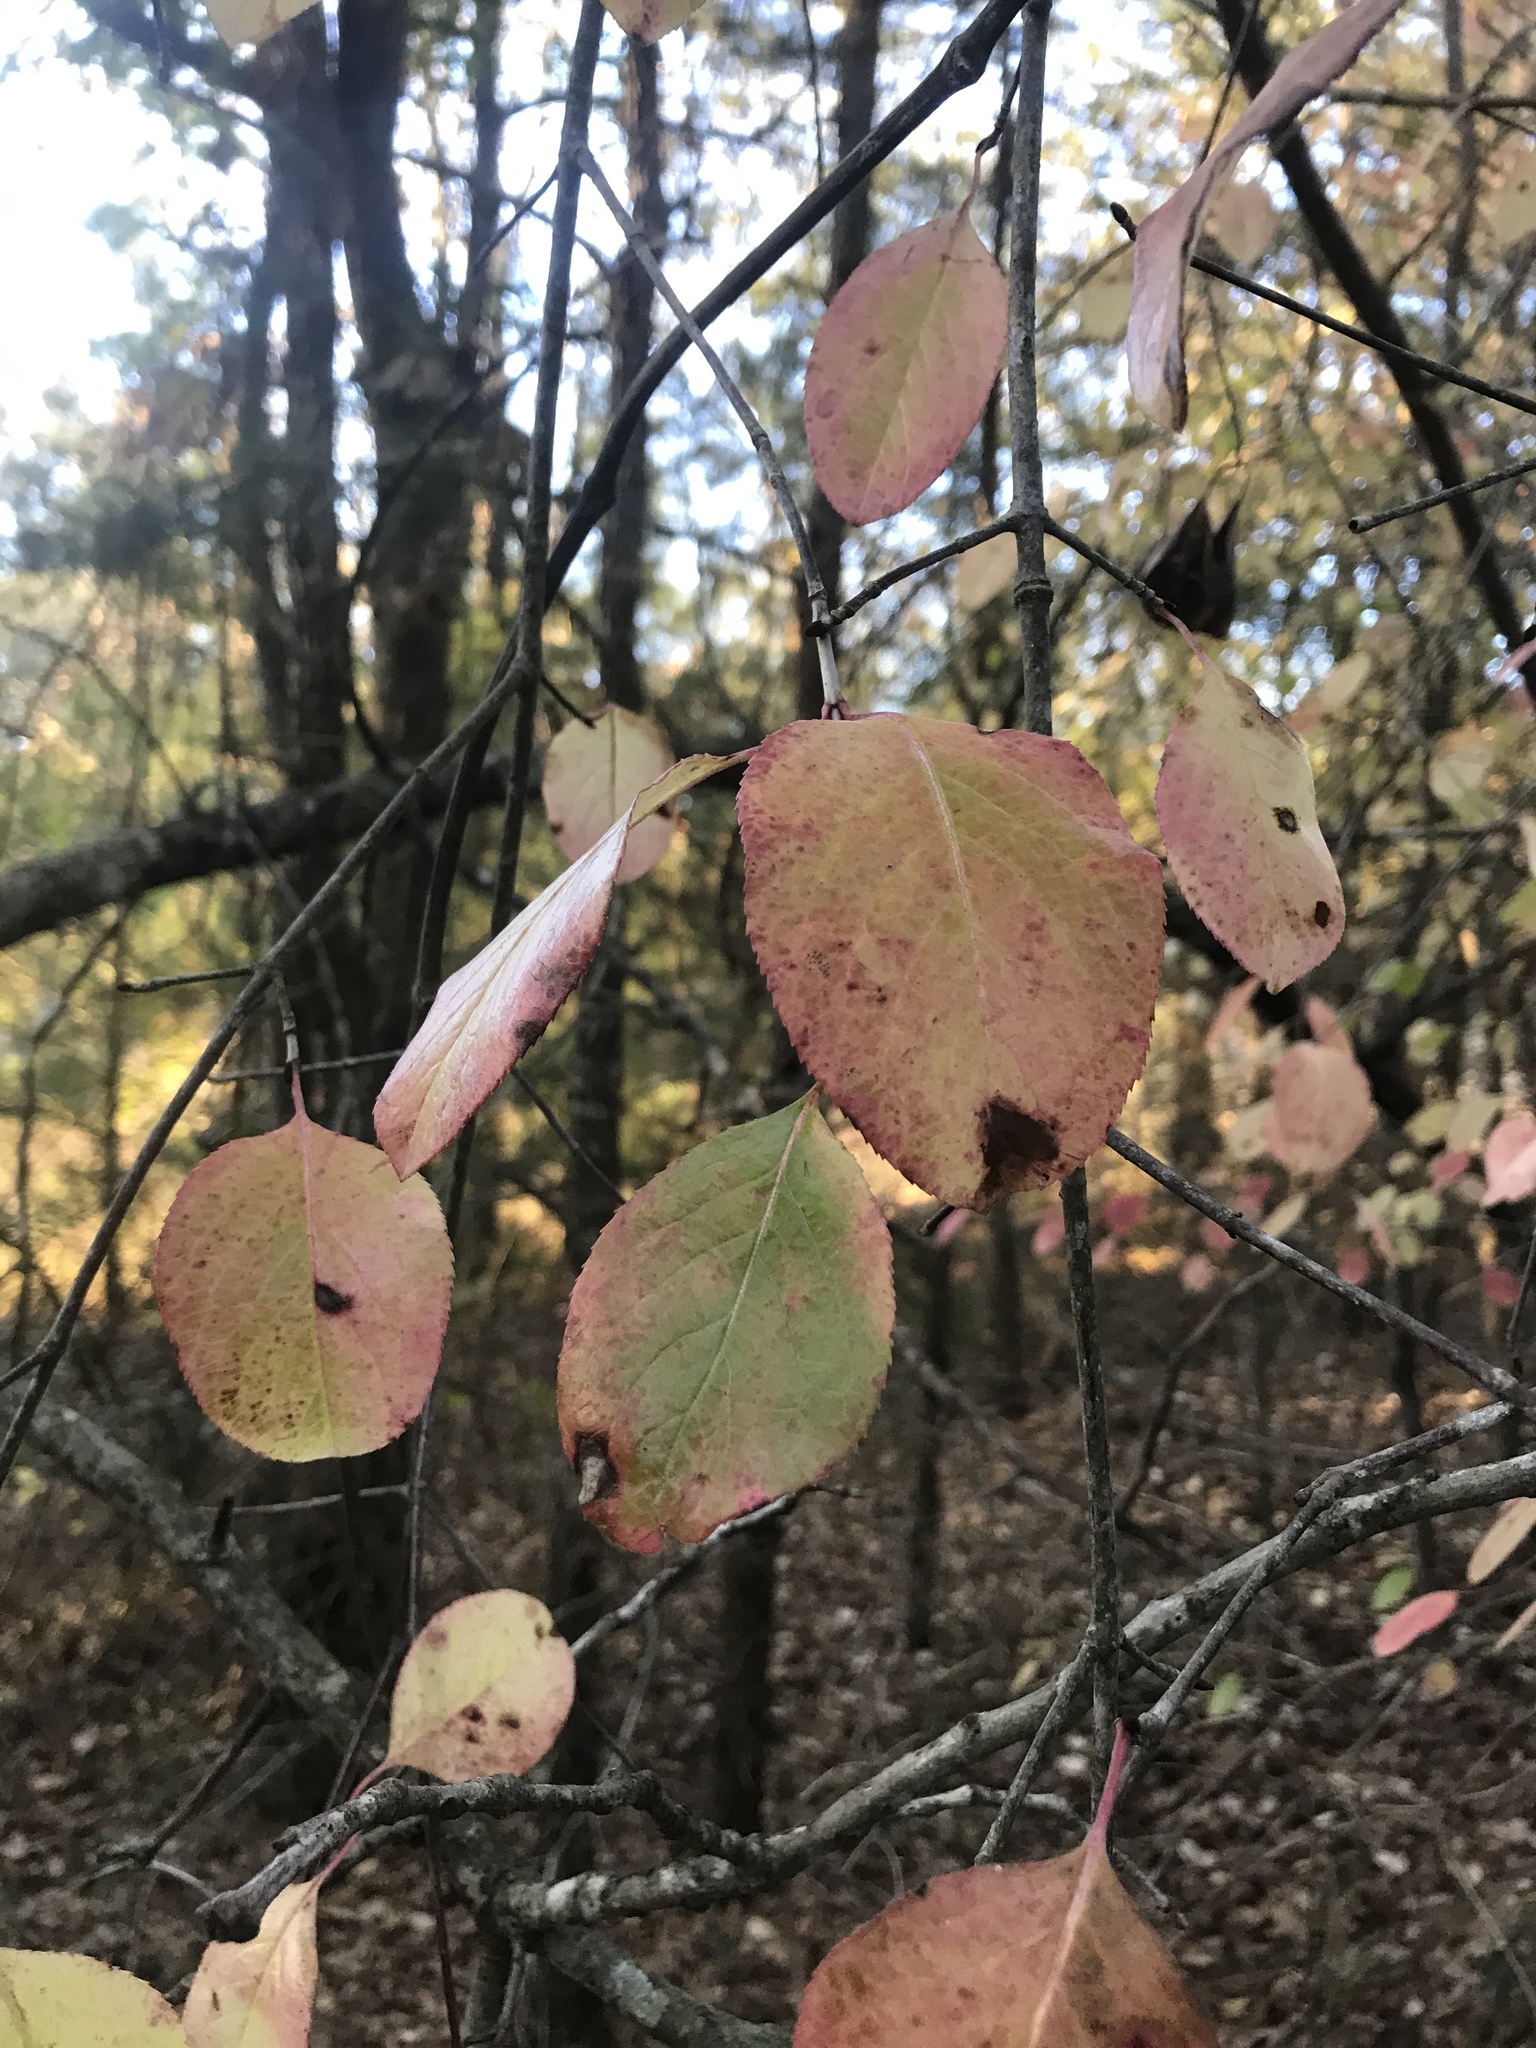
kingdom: Plantae
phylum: Tracheophyta
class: Magnoliopsida
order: Dipsacales
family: Viburnaceae
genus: Viburnum
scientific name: Viburnum rufidulum
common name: Blue haw
